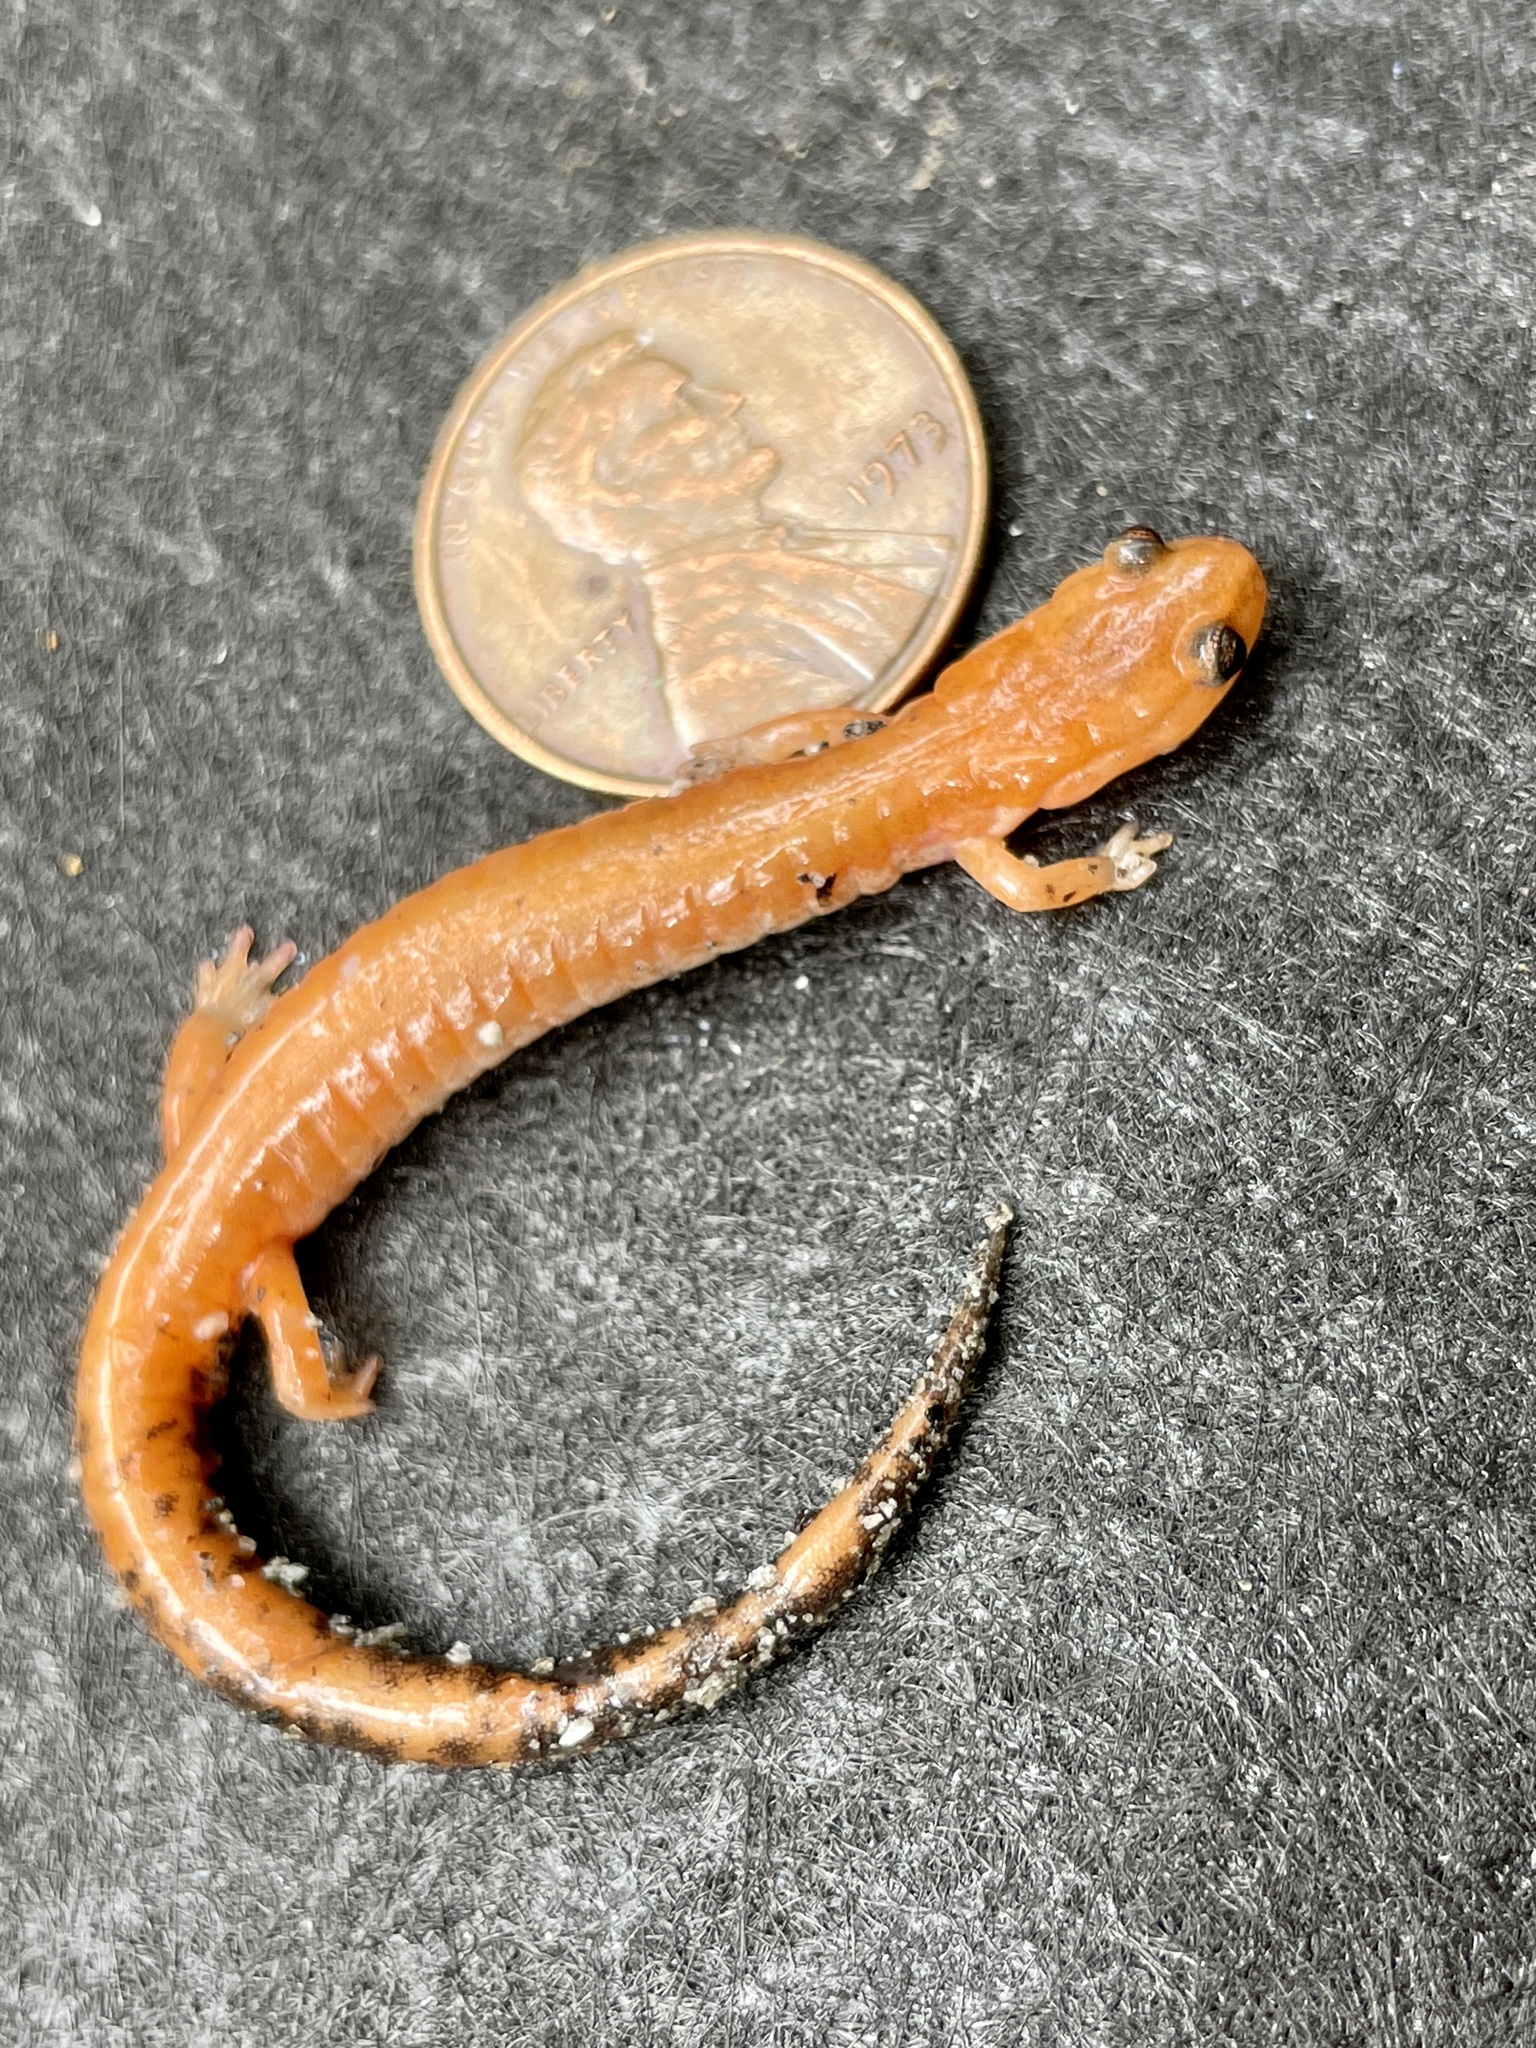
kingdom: Animalia
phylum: Chordata
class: Amphibia
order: Caudata
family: Plethodontidae
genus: Plethodon
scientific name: Plethodon cinereus
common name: Redback salamander
